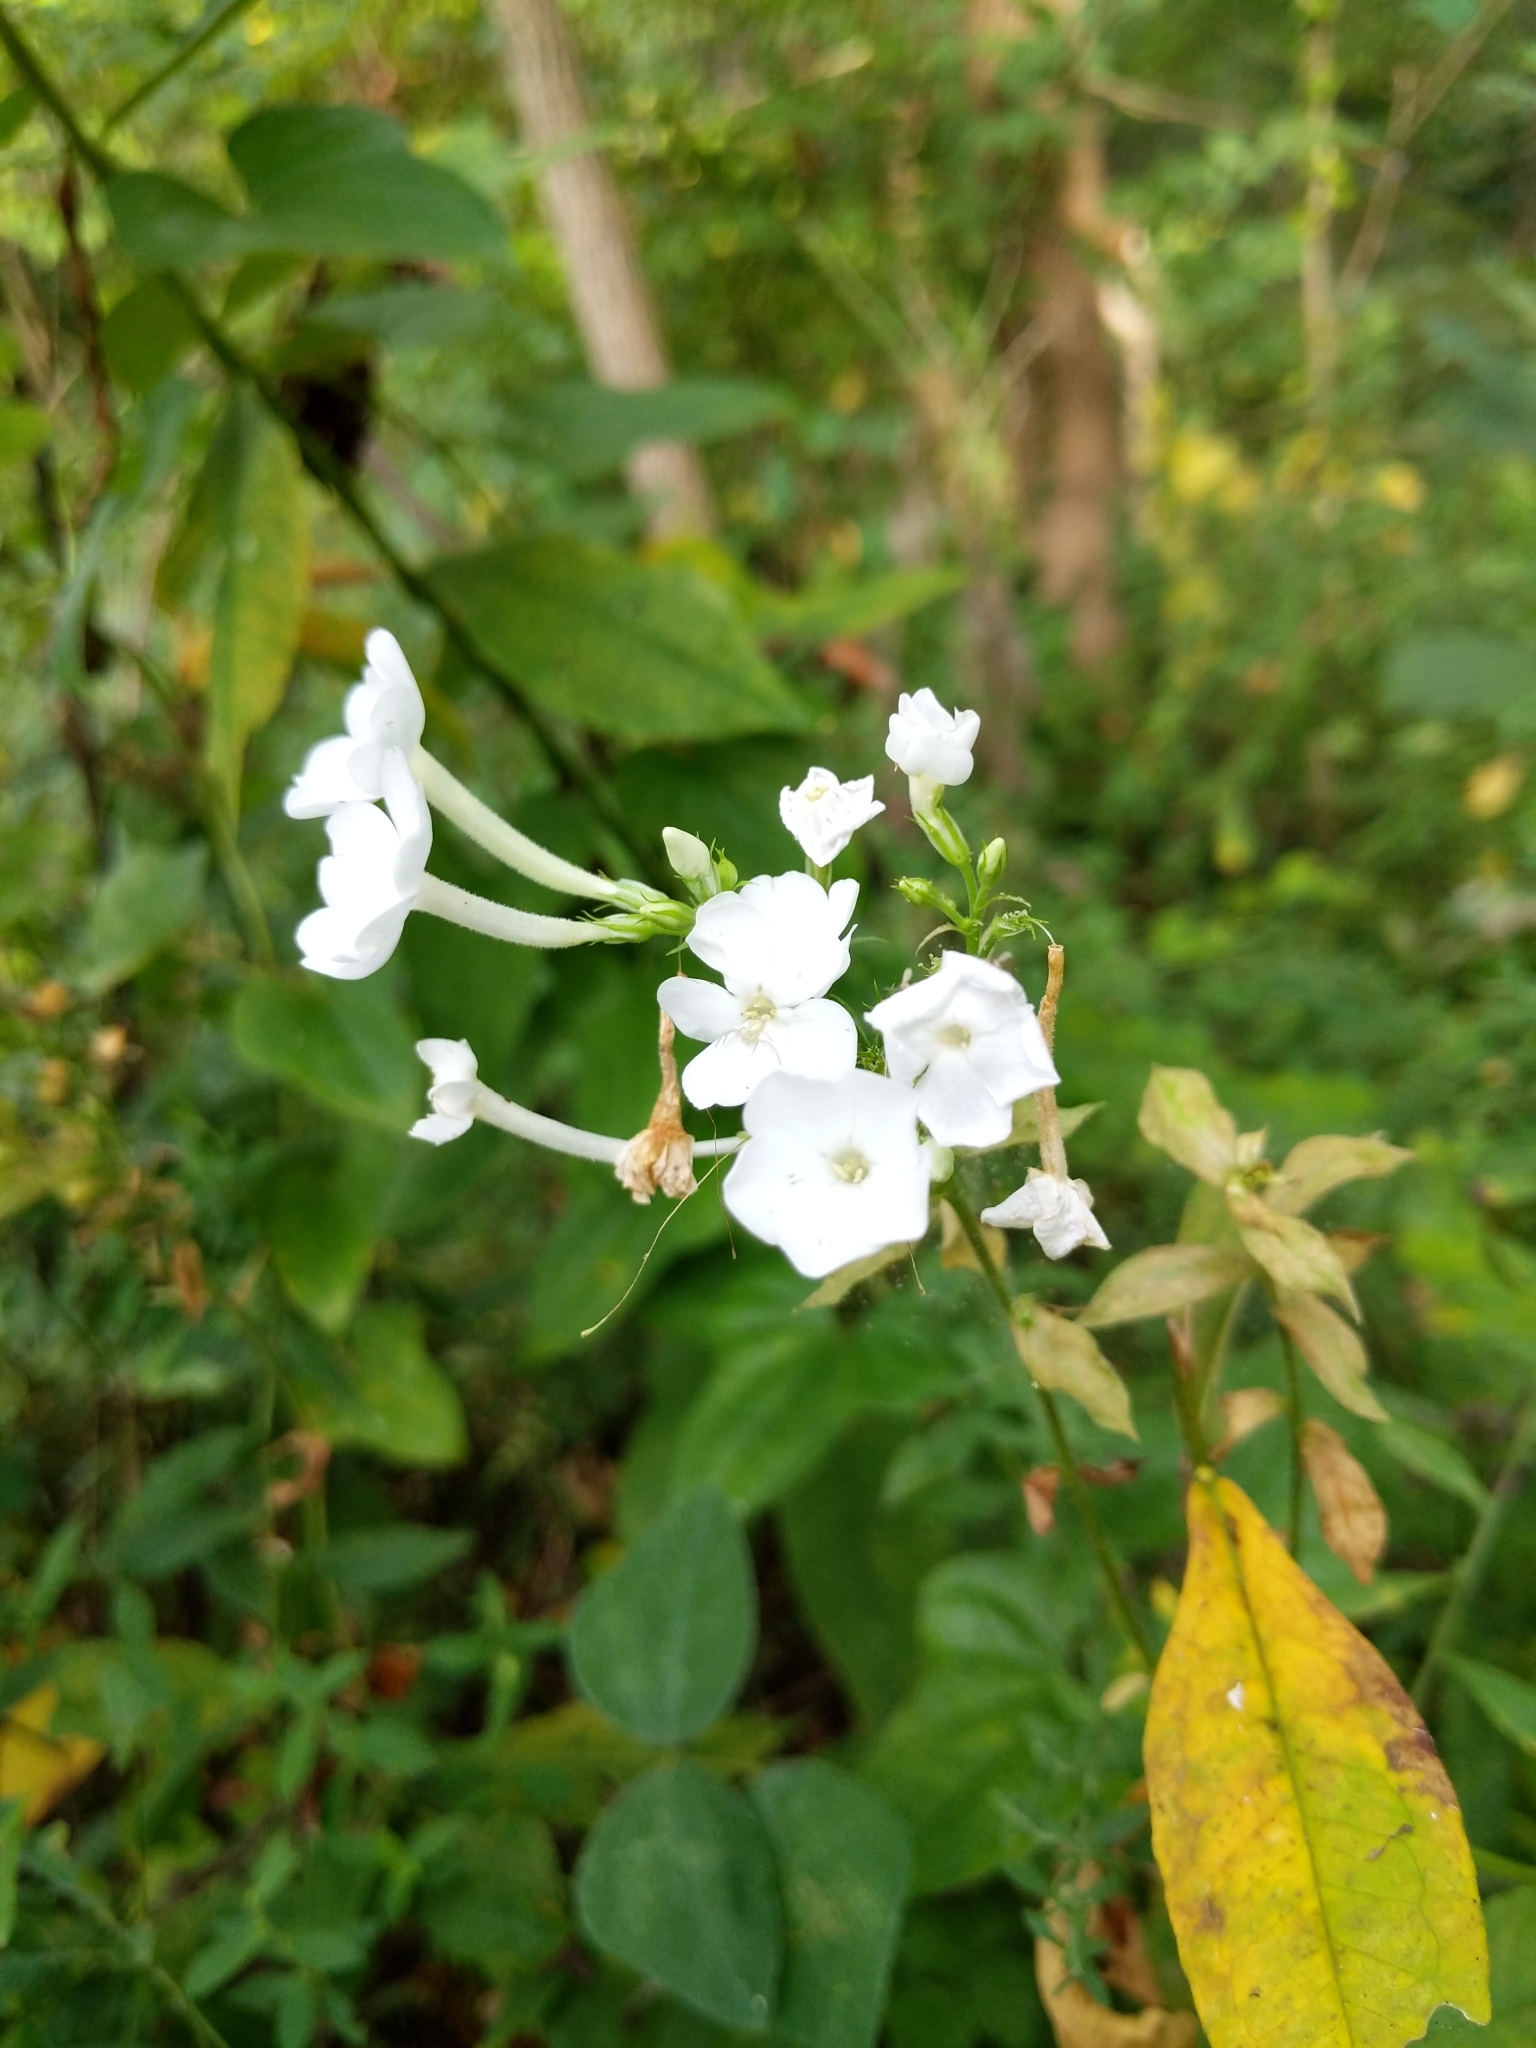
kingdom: Plantae
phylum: Tracheophyta
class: Magnoliopsida
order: Ericales
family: Polemoniaceae
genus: Phlox
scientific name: Phlox paniculata
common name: Fall phlox
